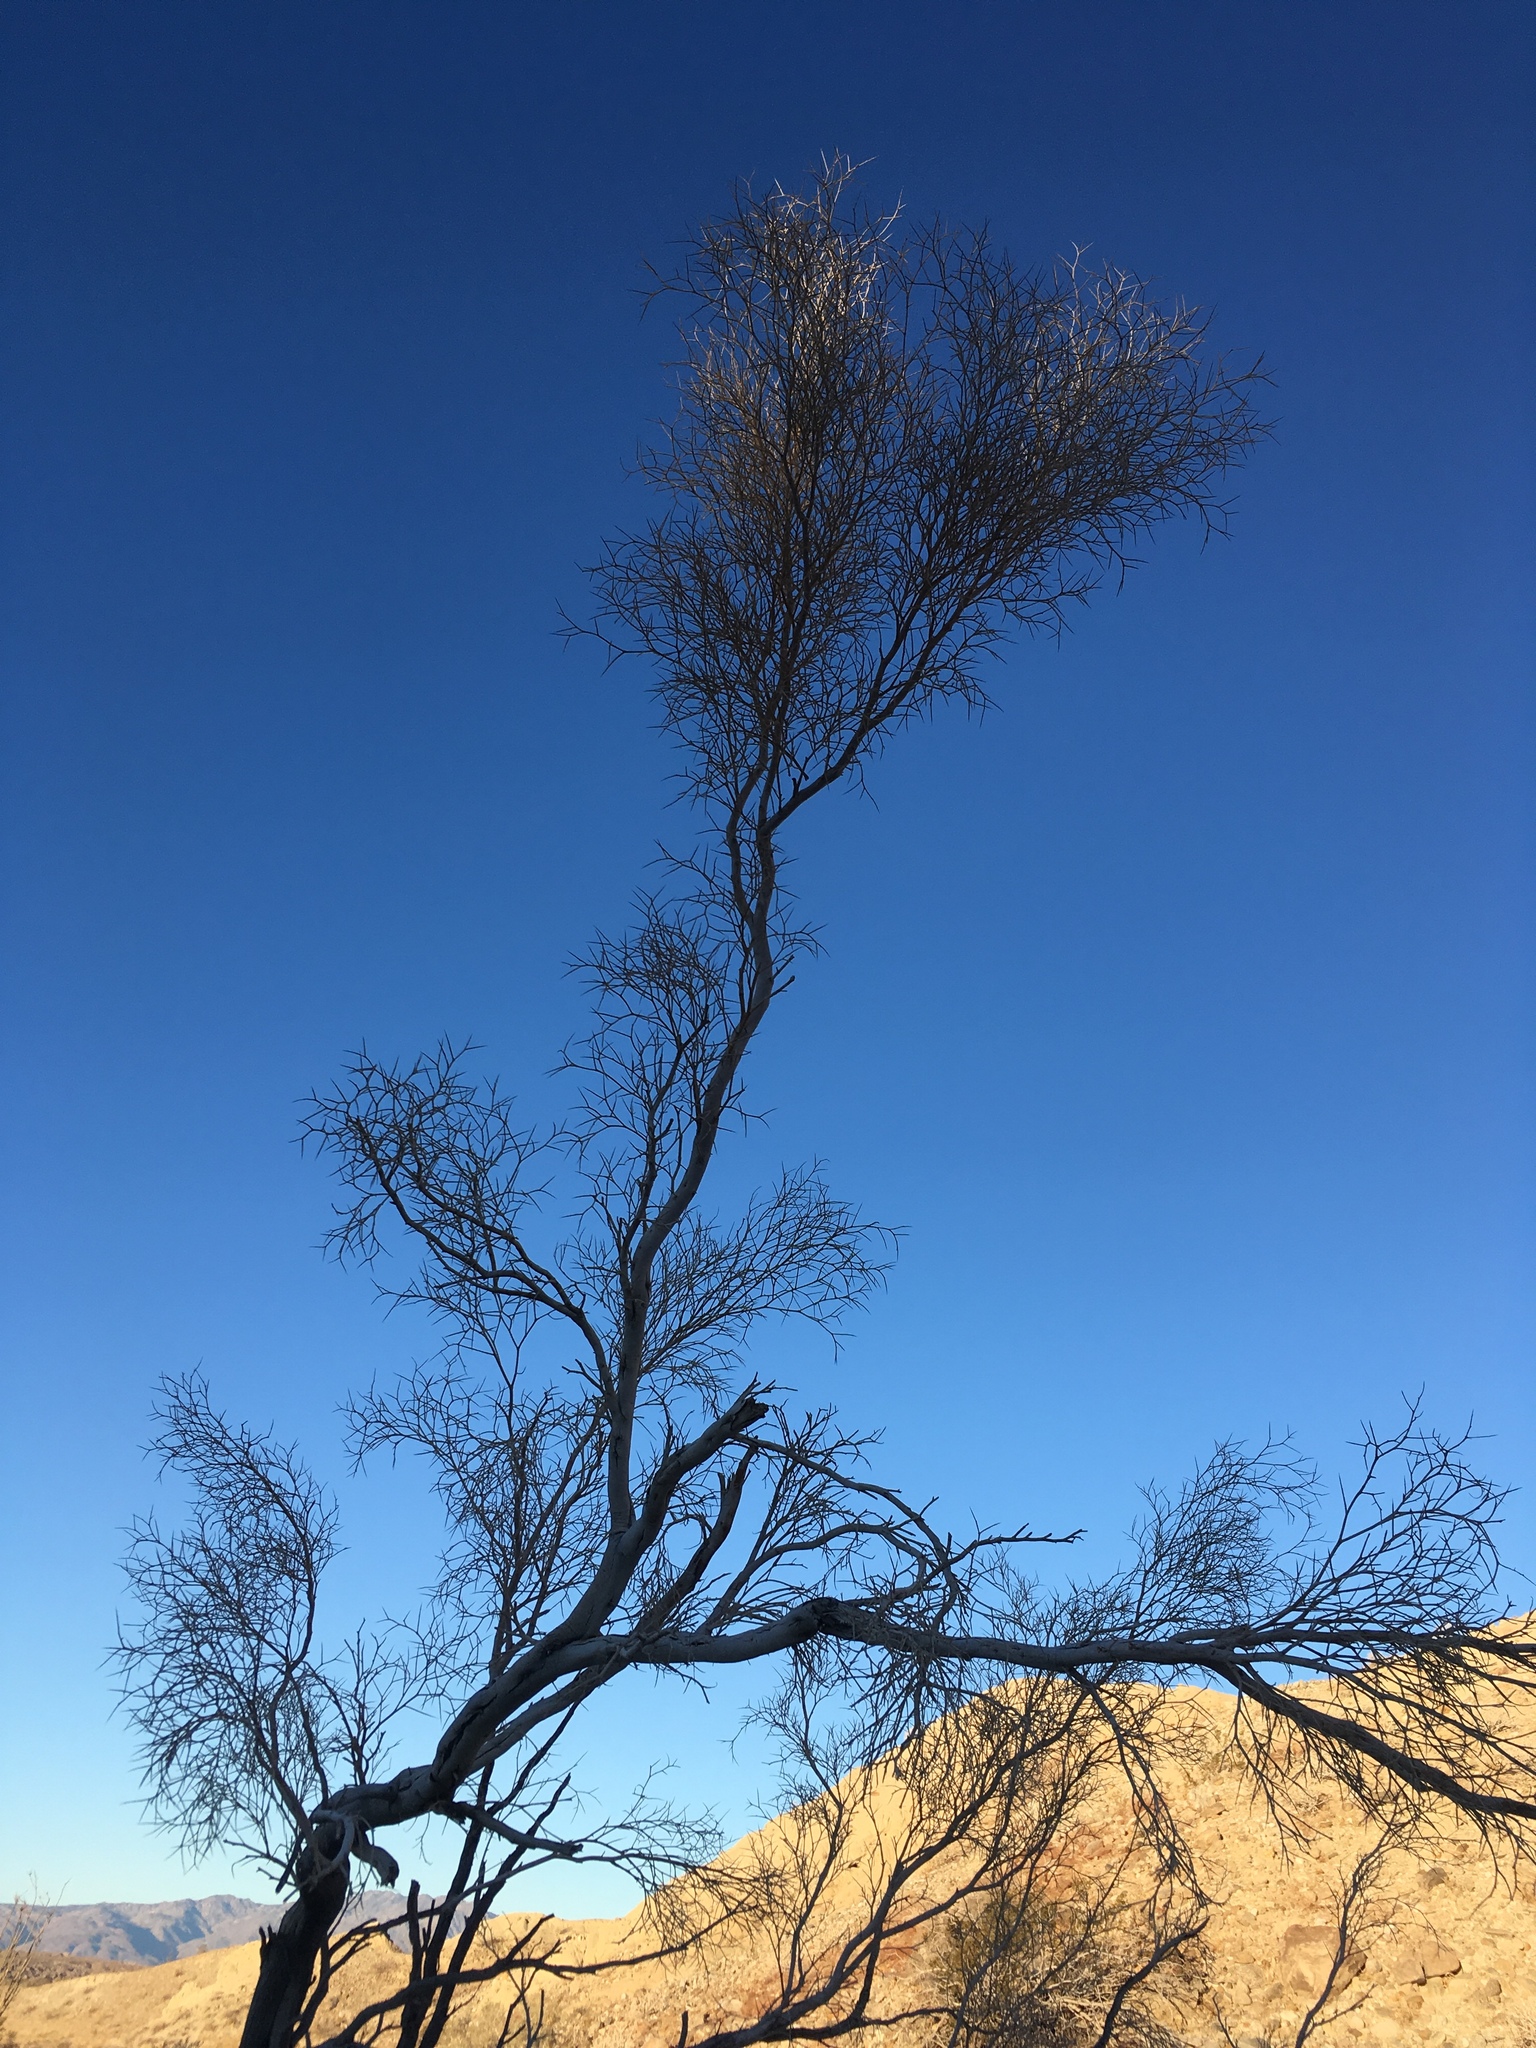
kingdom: Plantae
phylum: Tracheophyta
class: Magnoliopsida
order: Fabales
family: Fabaceae
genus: Psorothamnus
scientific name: Psorothamnus spinosus
